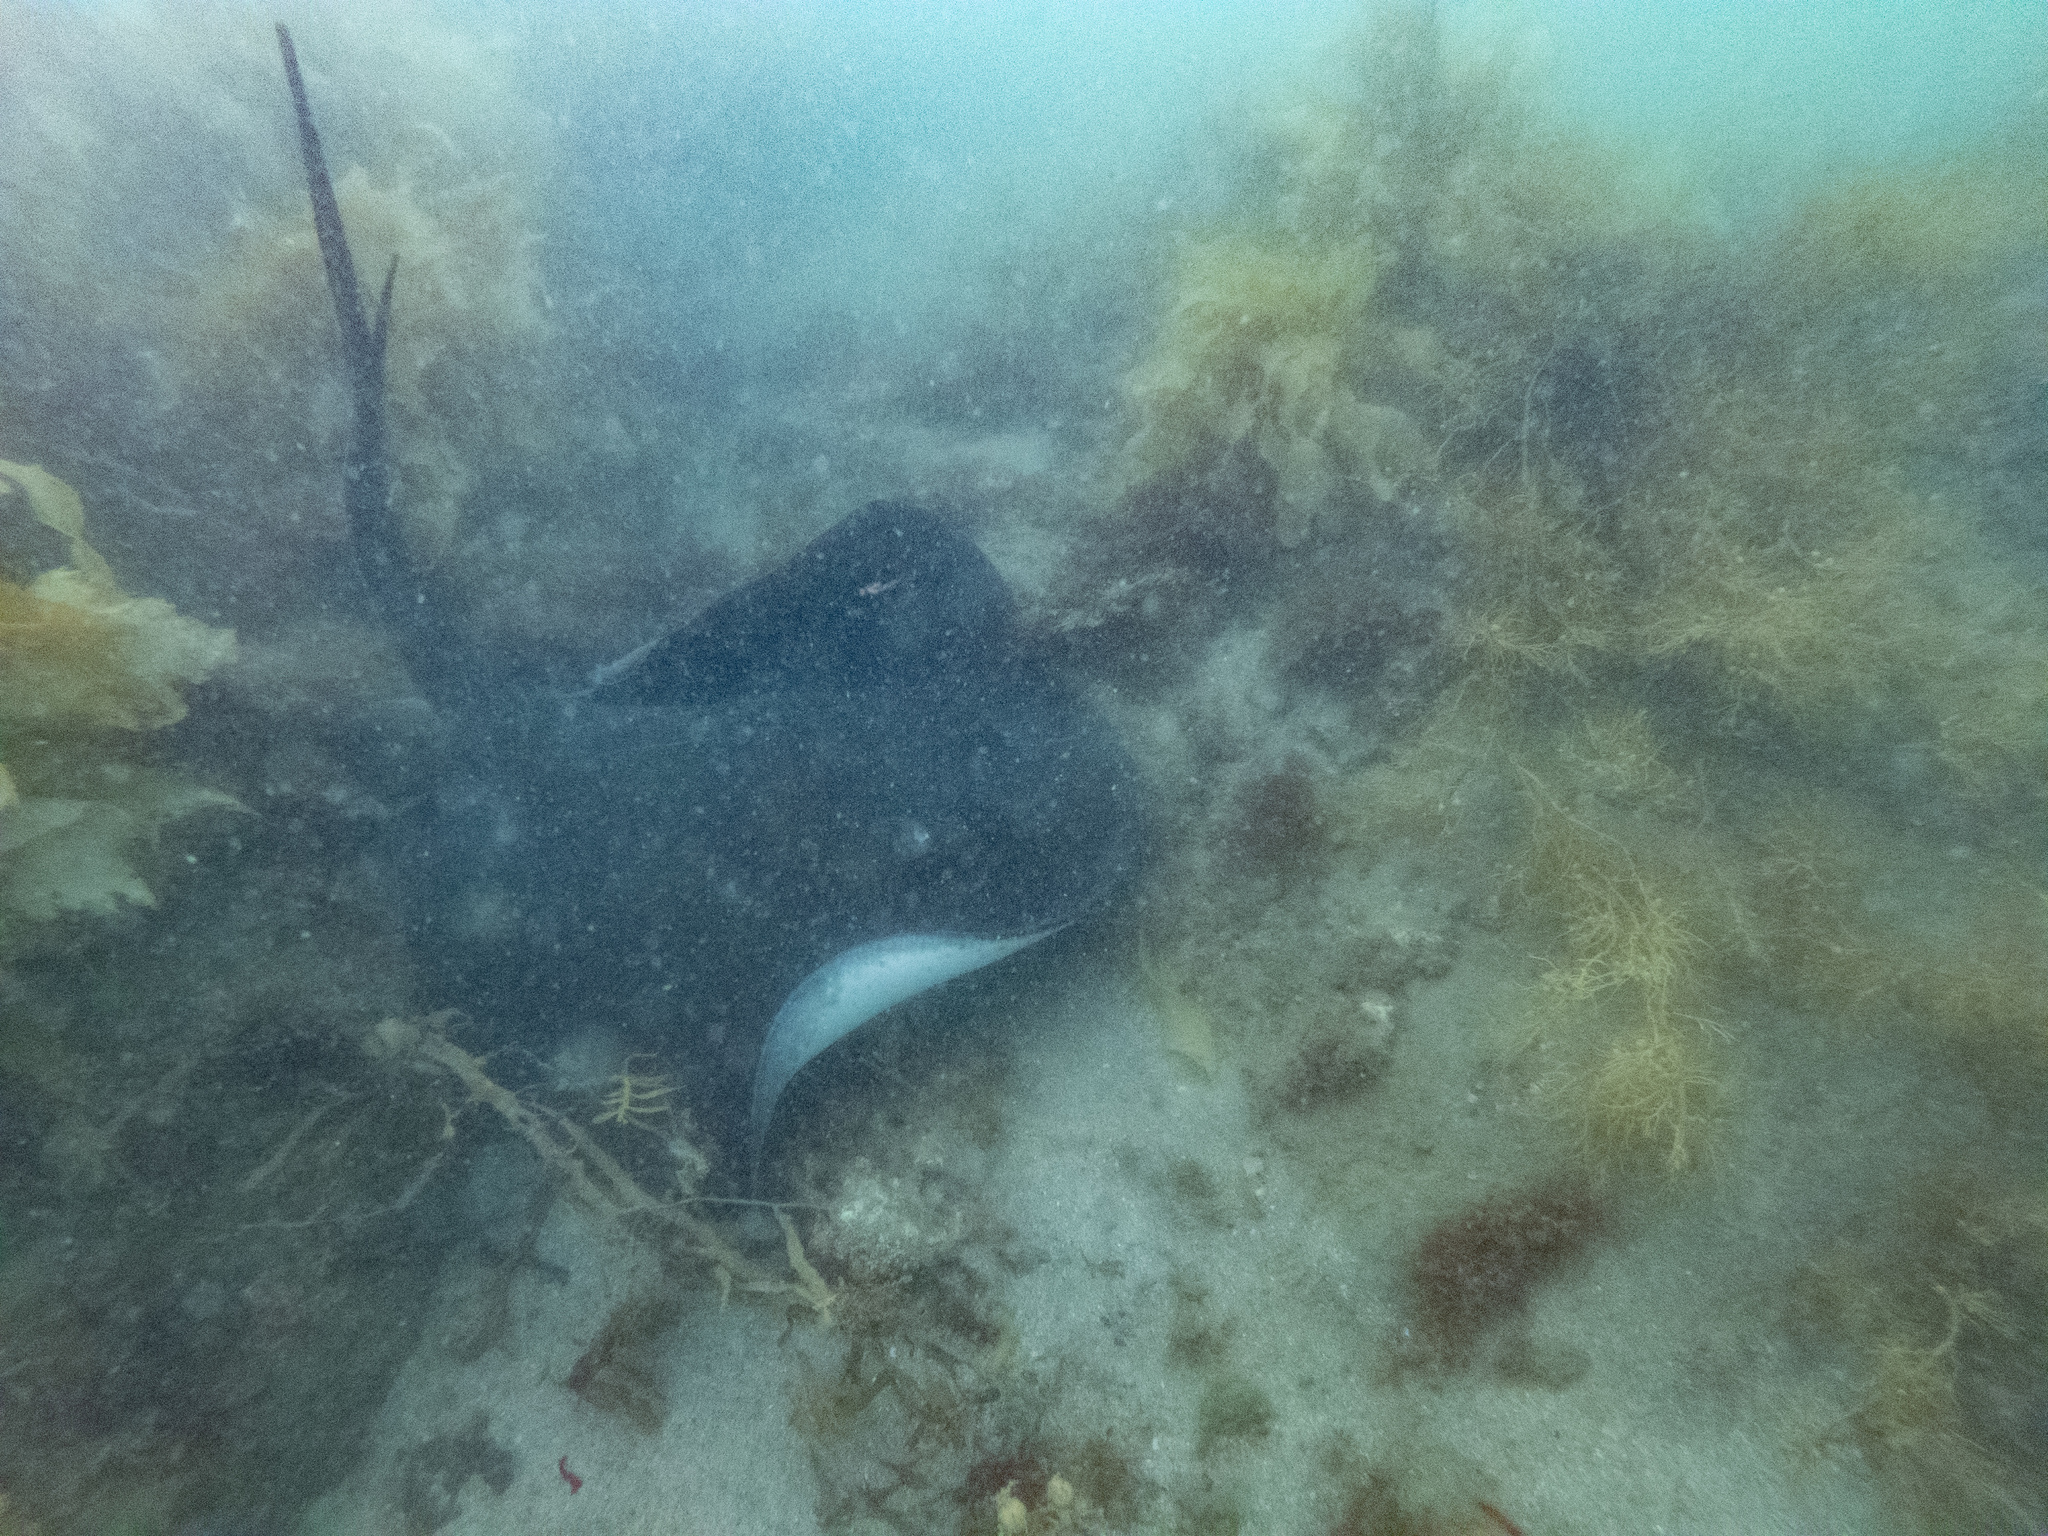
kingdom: Animalia
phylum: Chordata
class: Elasmobranchii
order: Myliobatiformes
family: Dasyatidae
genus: Bathytoshia
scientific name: Bathytoshia brevicaudata
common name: Short-tail stingray
